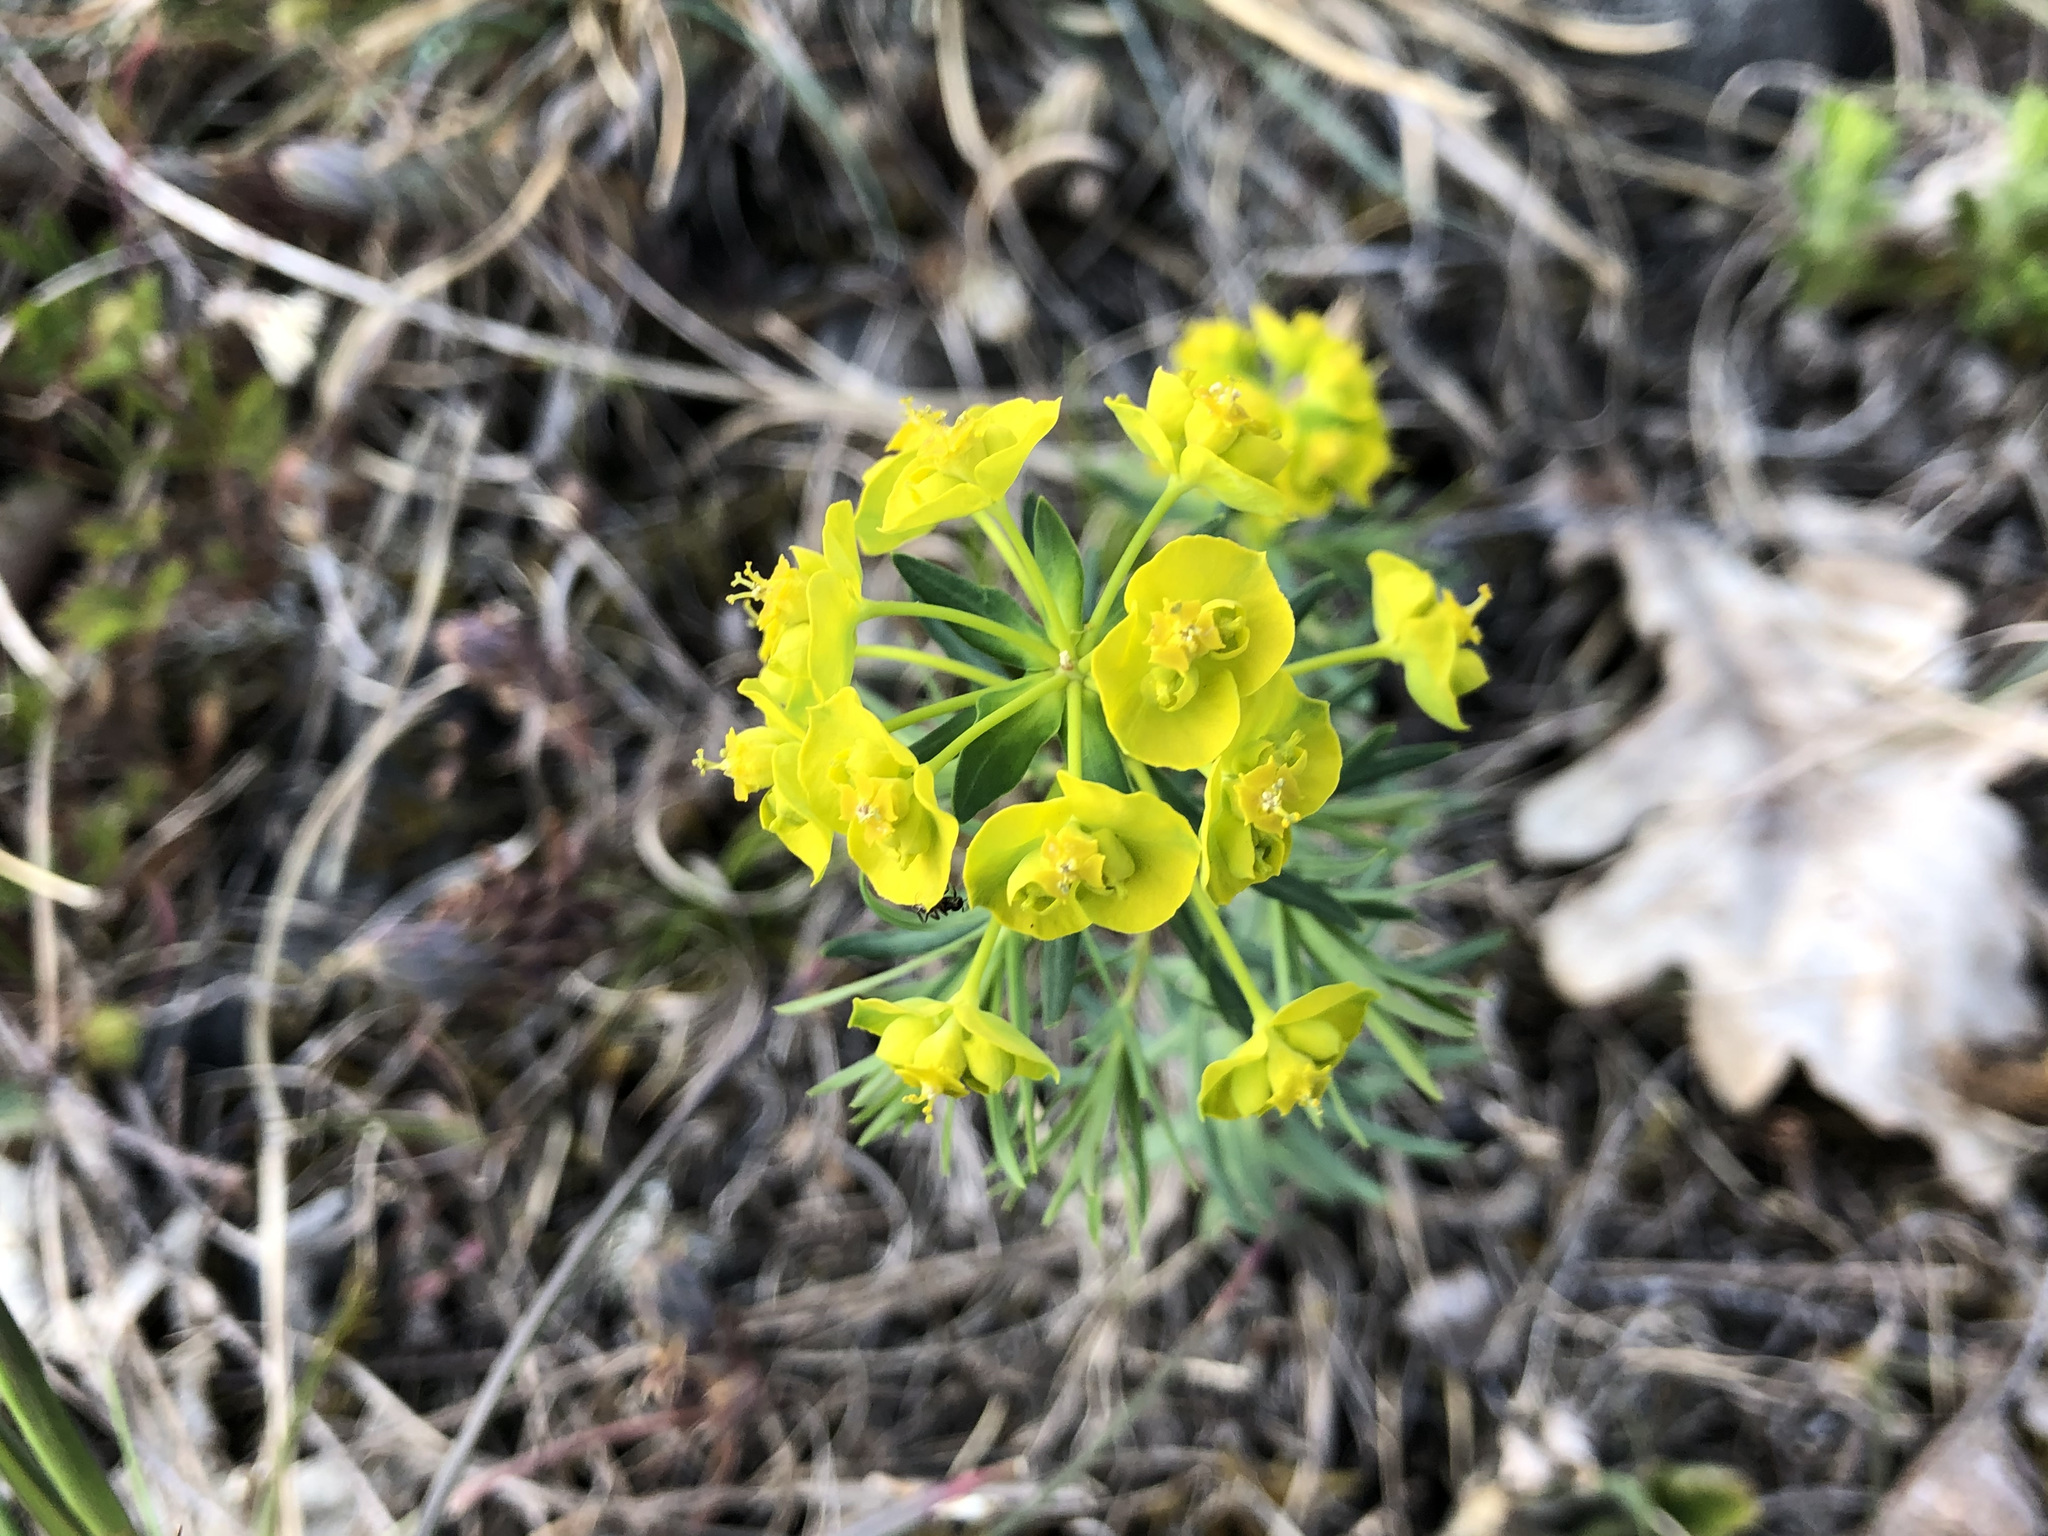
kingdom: Plantae
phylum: Tracheophyta
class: Magnoliopsida
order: Malpighiales
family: Euphorbiaceae
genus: Euphorbia
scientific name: Euphorbia cyparissias
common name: Cypress spurge
